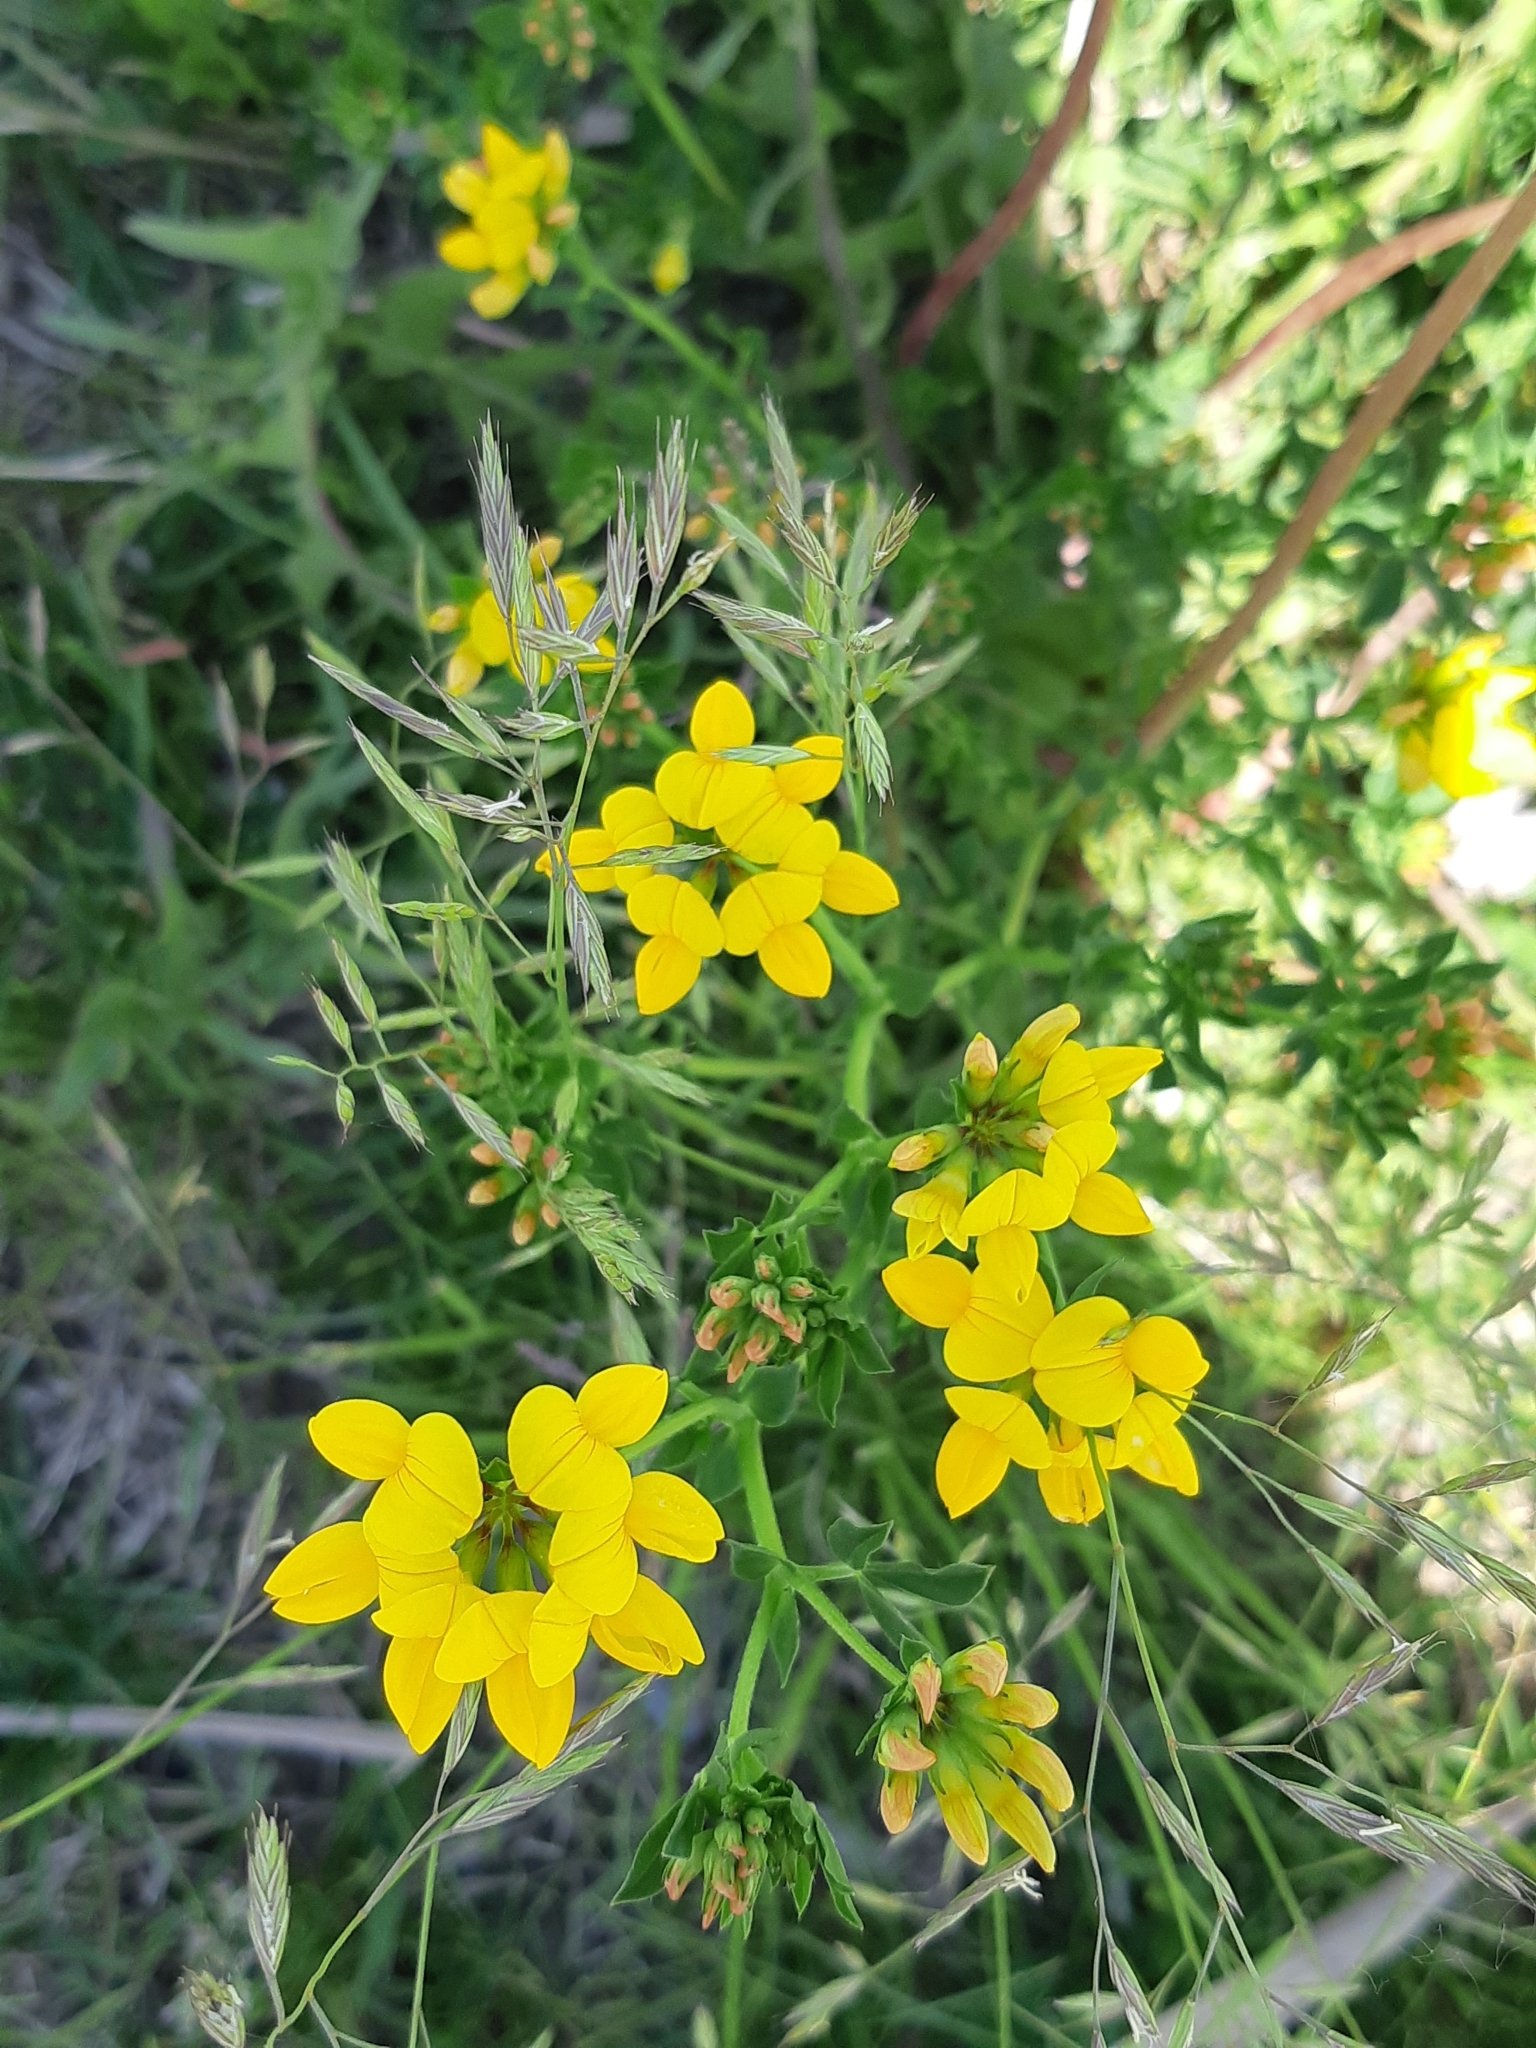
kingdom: Plantae
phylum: Tracheophyta
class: Magnoliopsida
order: Fabales
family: Fabaceae
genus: Lotus
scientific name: Lotus corniculatus
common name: Common bird's-foot-trefoil
